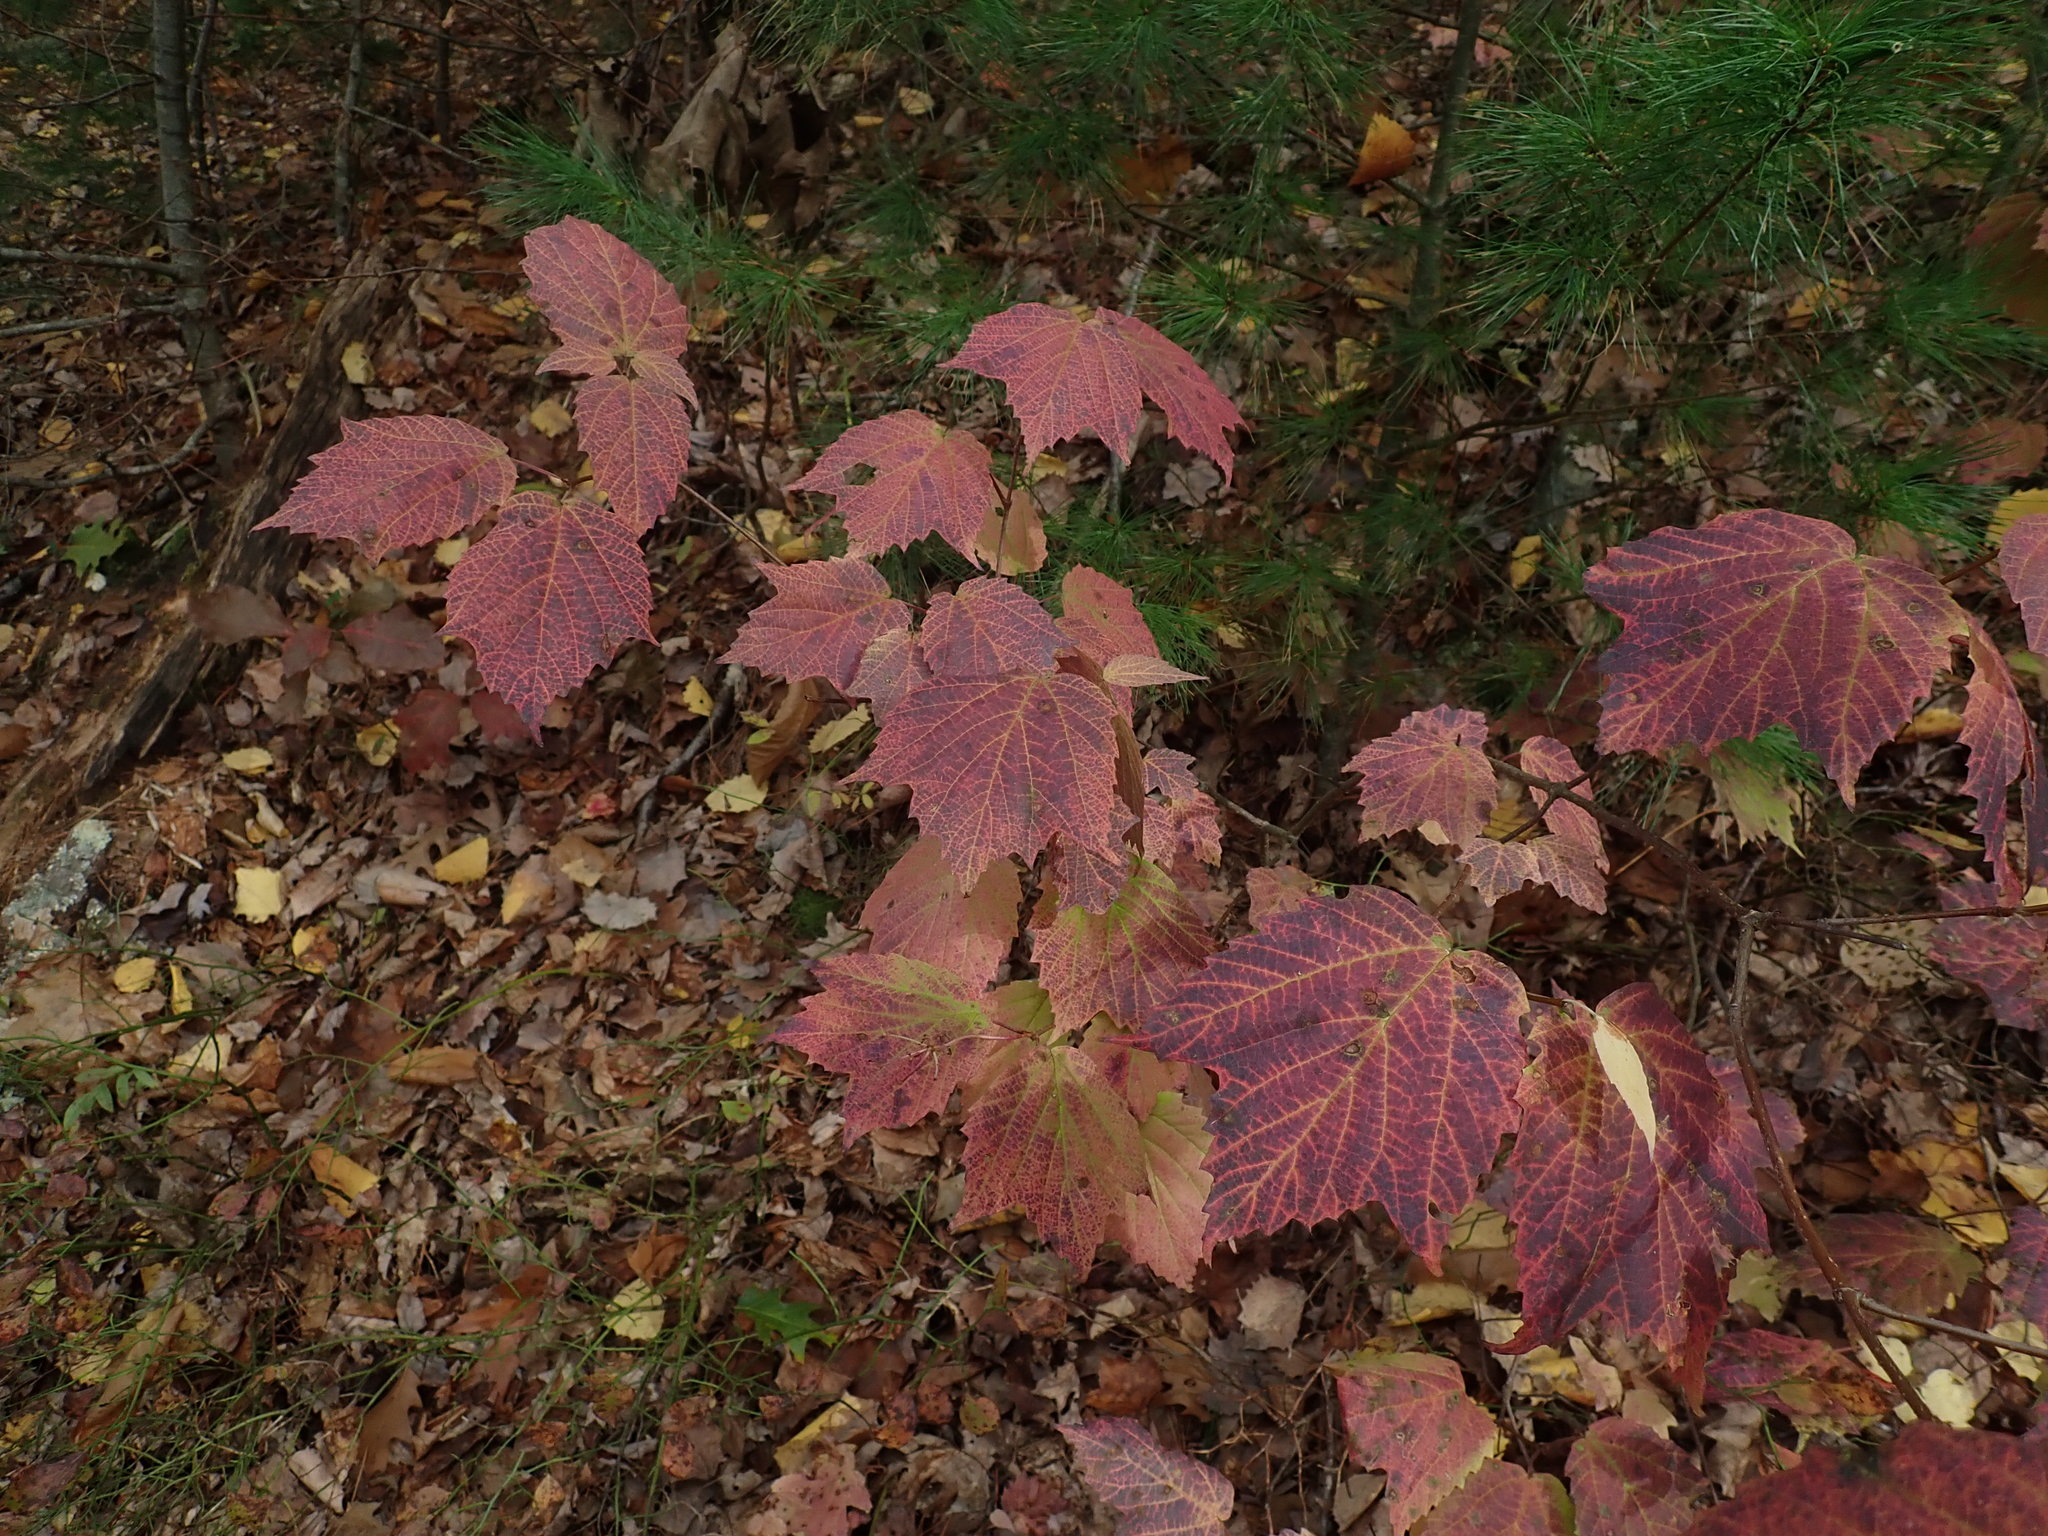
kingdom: Plantae
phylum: Tracheophyta
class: Magnoliopsida
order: Dipsacales
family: Viburnaceae
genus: Viburnum
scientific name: Viburnum acerifolium
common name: Dockmackie
